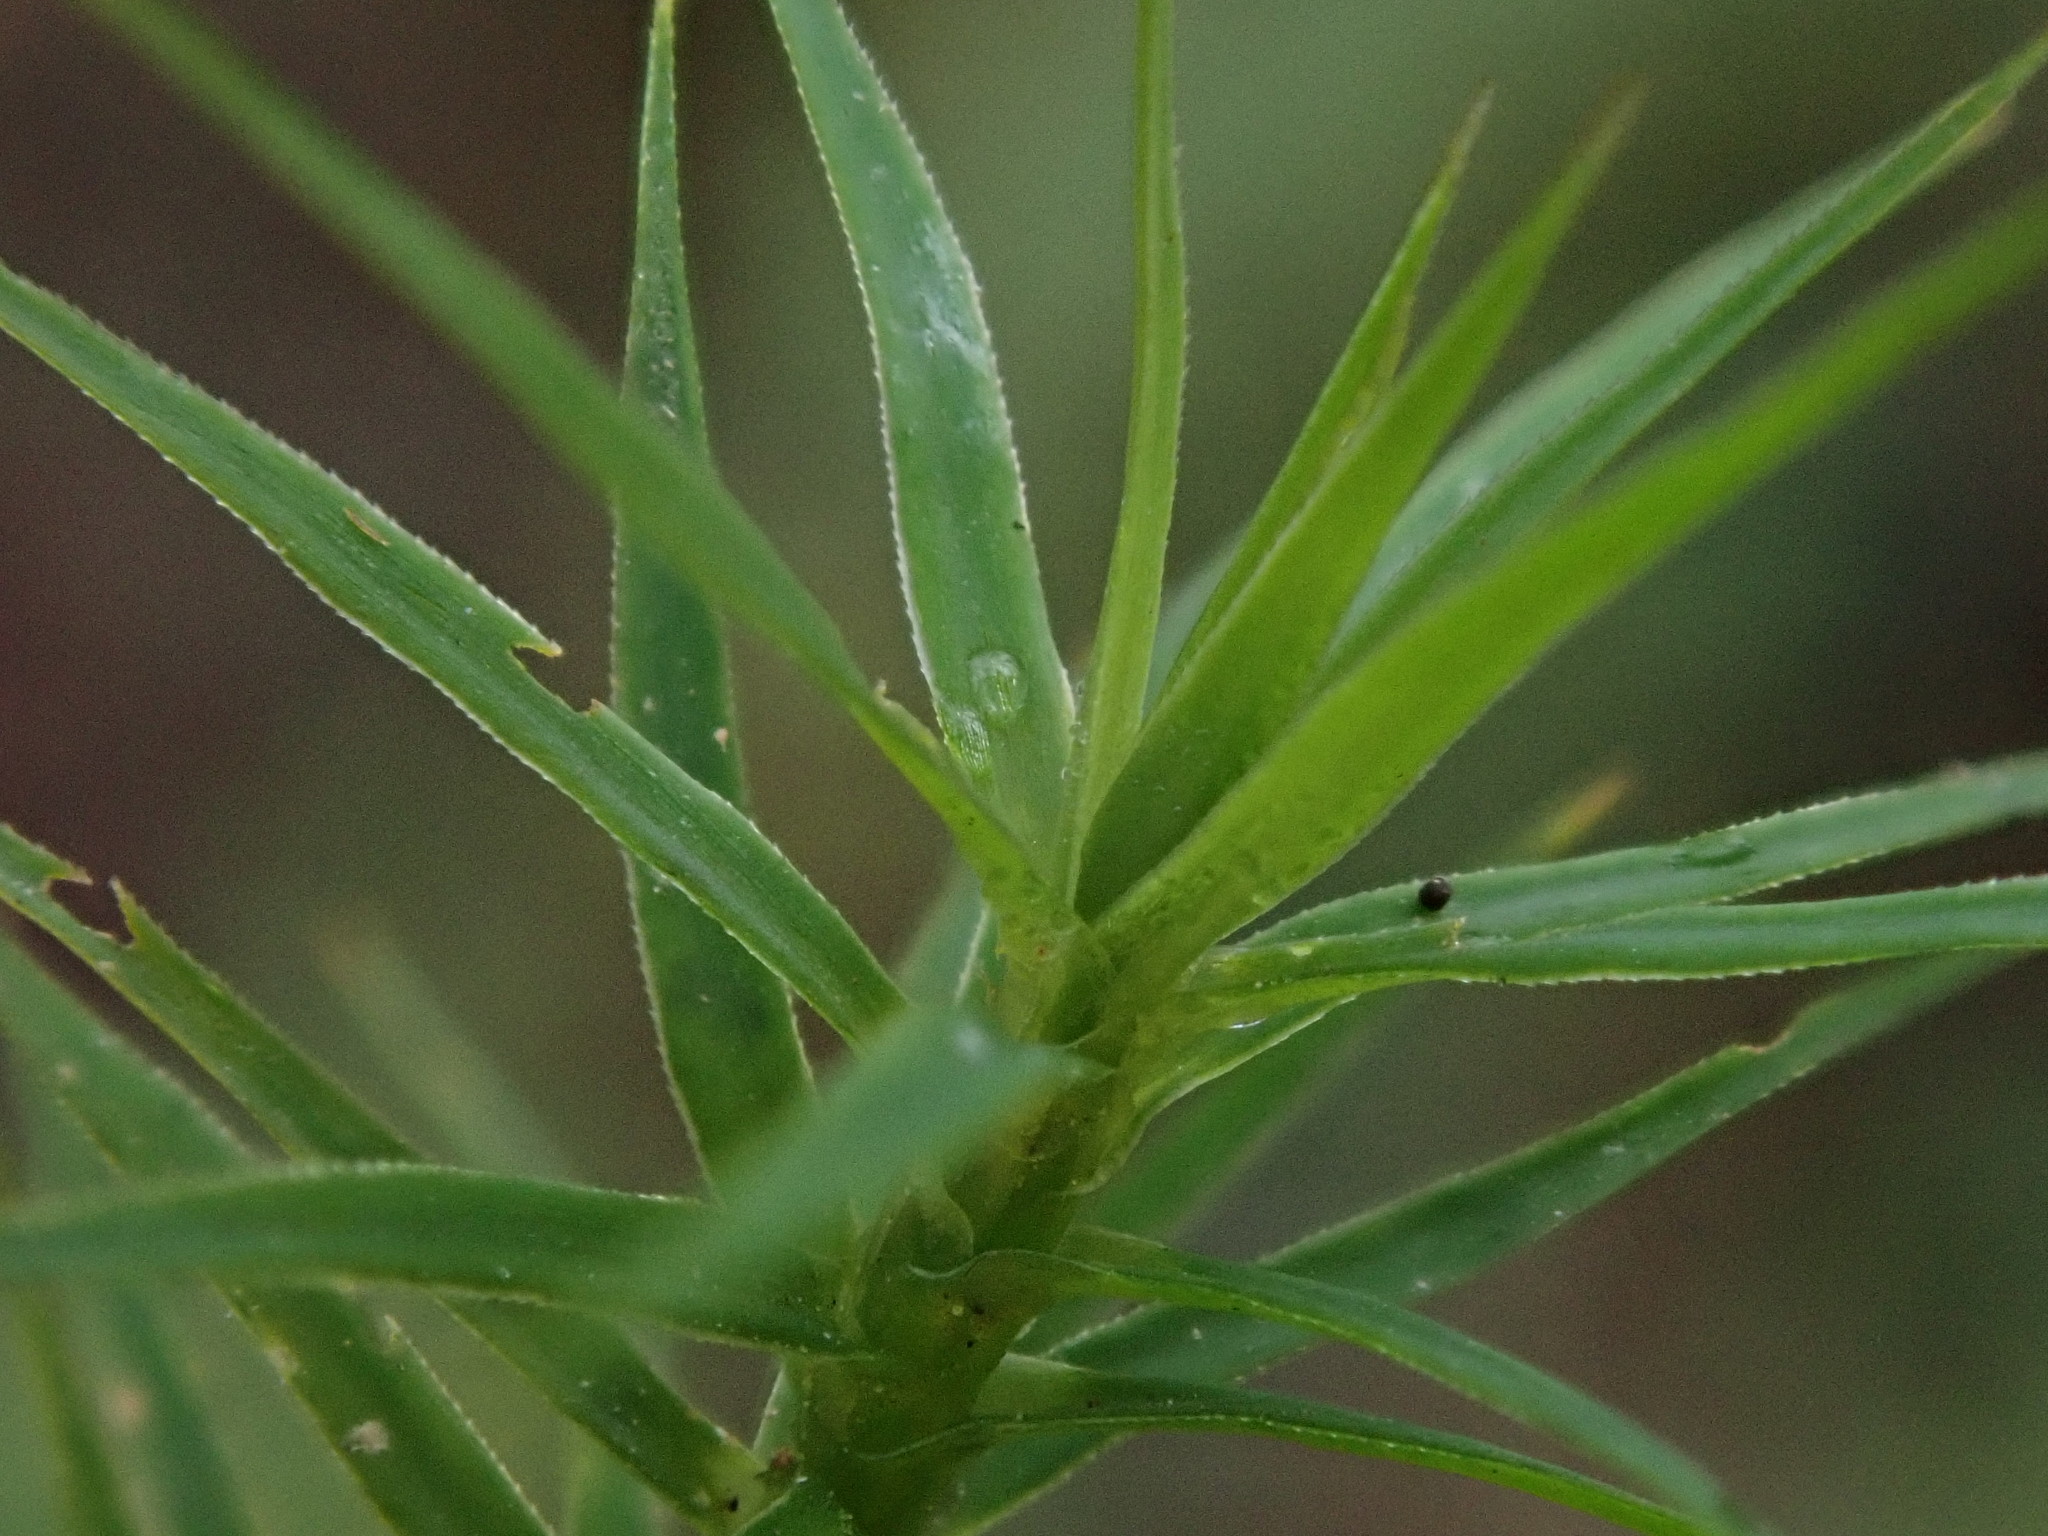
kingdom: Plantae
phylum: Bryophyta
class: Polytrichopsida
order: Polytrichales
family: Polytrichaceae
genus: Polytrichum
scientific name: Polytrichum formosum
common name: Bank haircap moss
